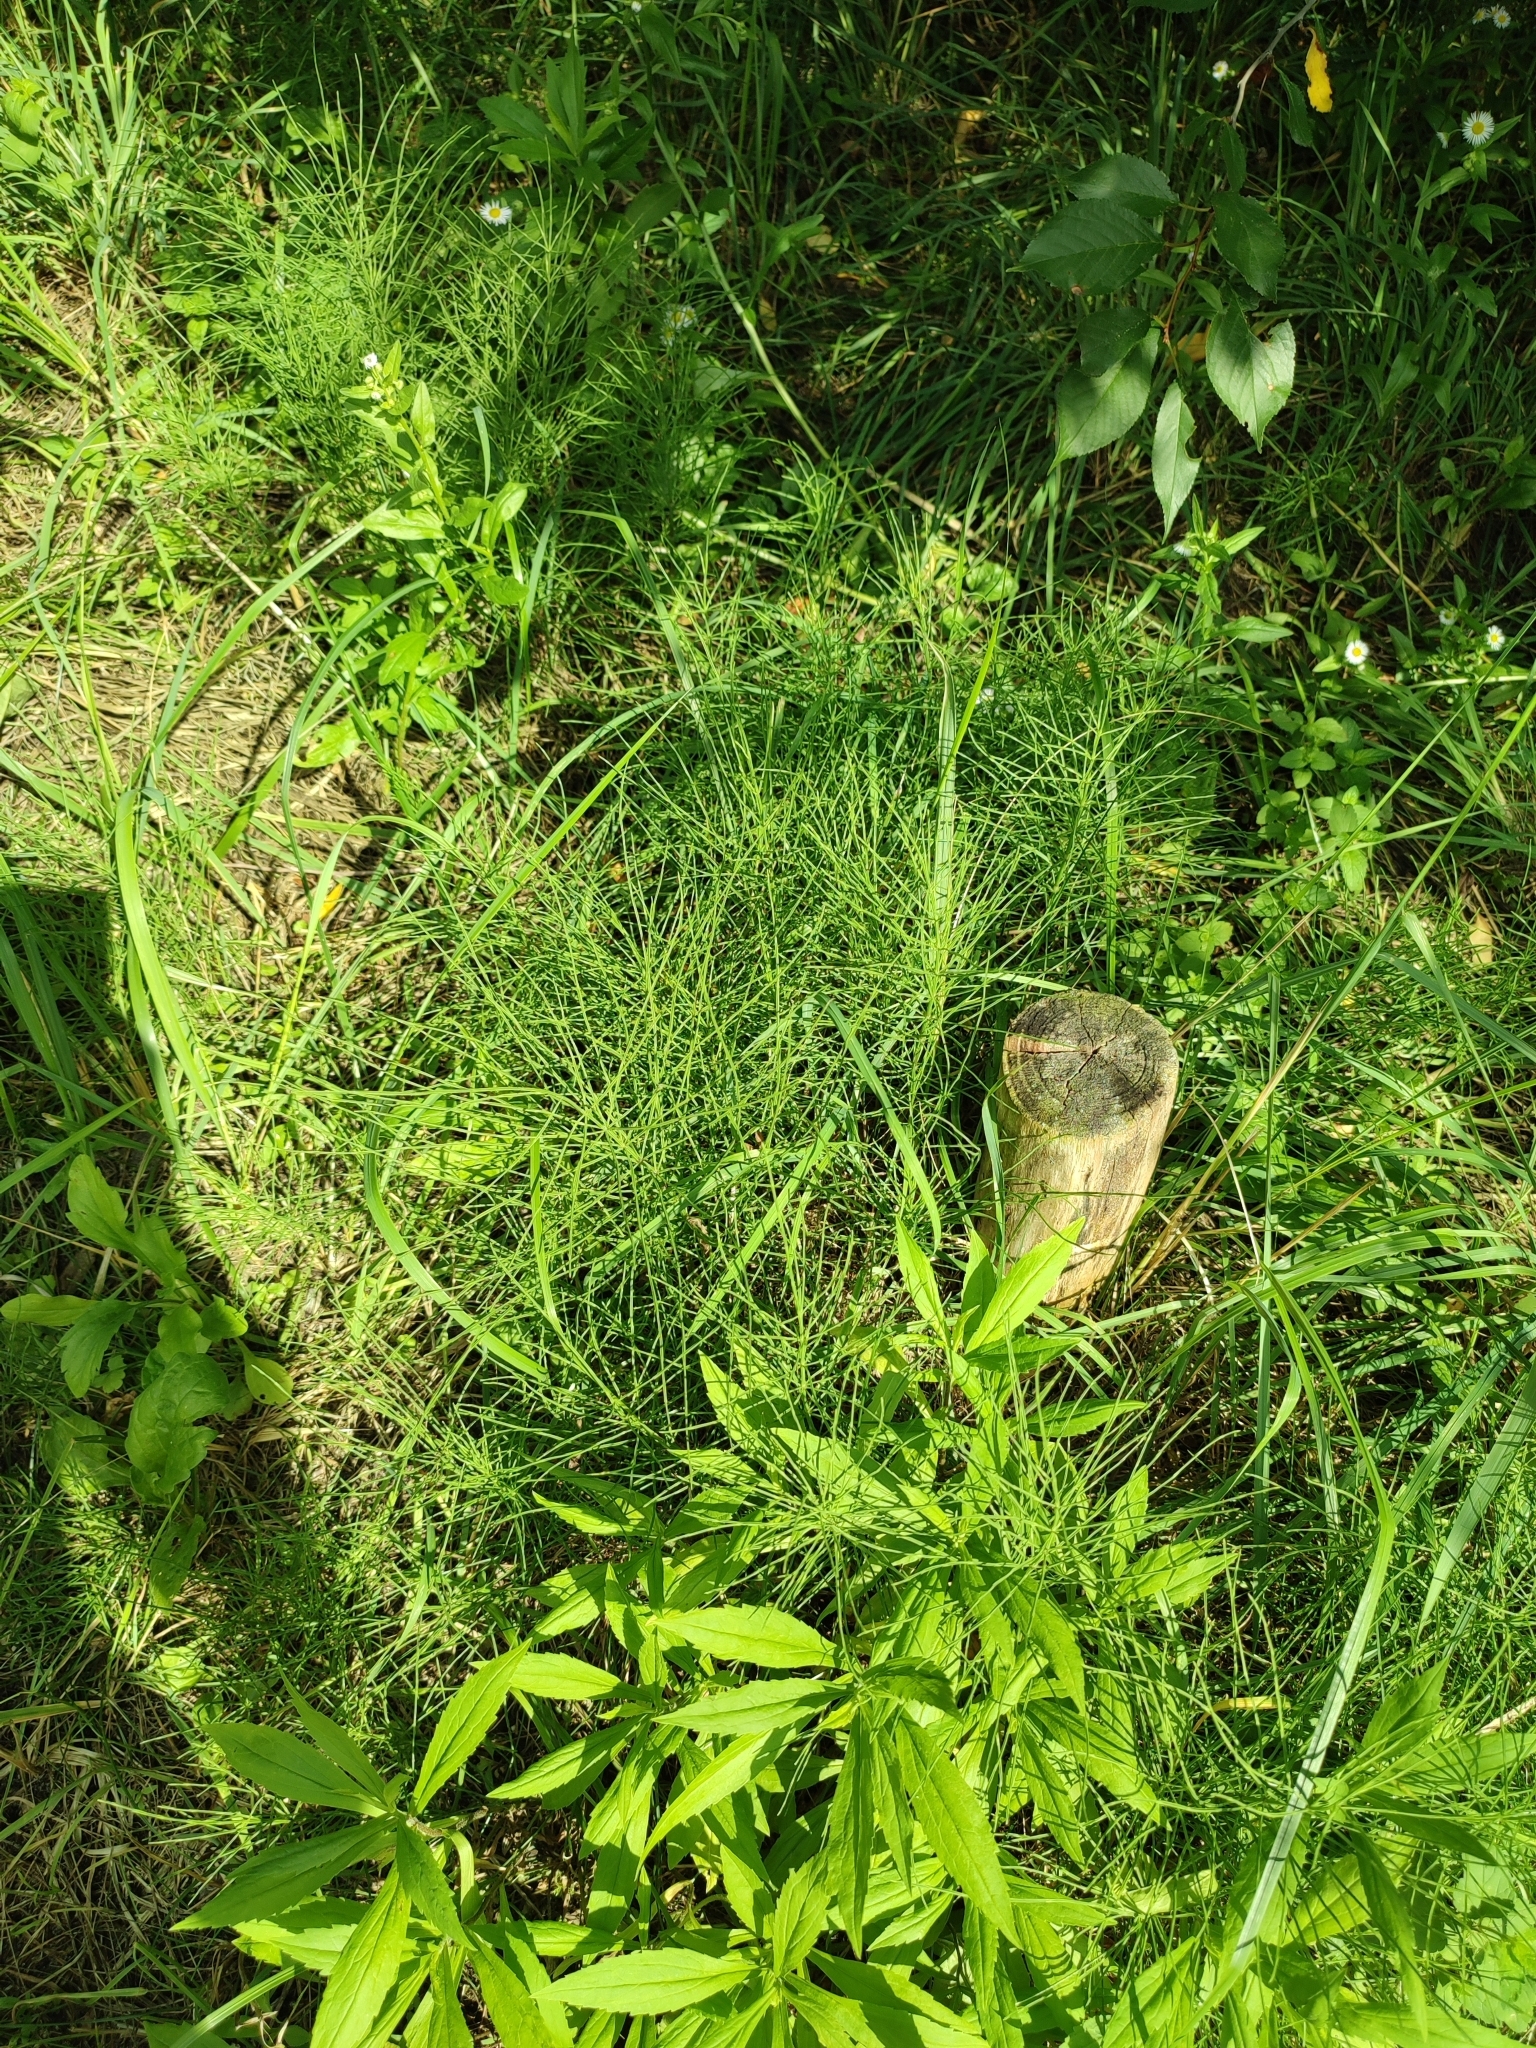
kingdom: Plantae
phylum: Tracheophyta
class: Polypodiopsida
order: Equisetales
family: Equisetaceae
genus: Equisetum
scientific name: Equisetum arvense
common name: Field horsetail
